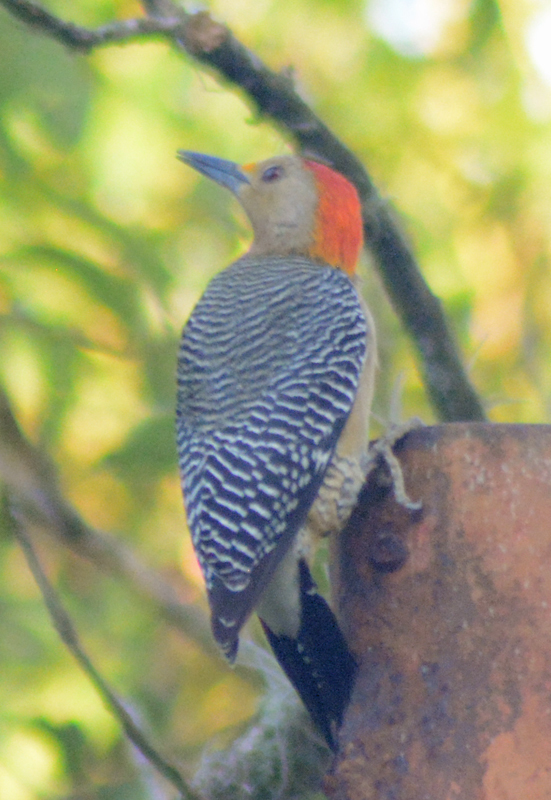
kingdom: Animalia
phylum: Chordata
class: Aves
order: Piciformes
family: Picidae
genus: Melanerpes
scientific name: Melanerpes aurifrons
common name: Golden-fronted woodpecker
